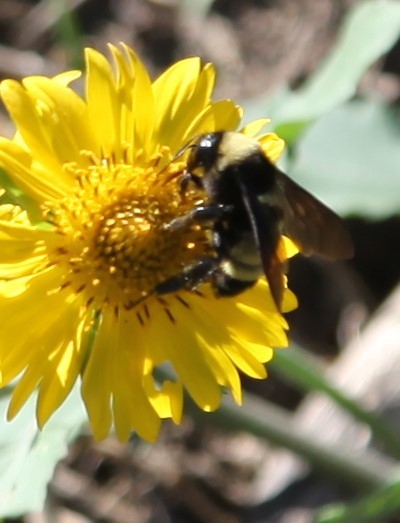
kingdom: Animalia
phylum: Arthropoda
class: Insecta
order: Hymenoptera
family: Apidae
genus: Bombus
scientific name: Bombus pensylvanicus
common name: Bumble bee
